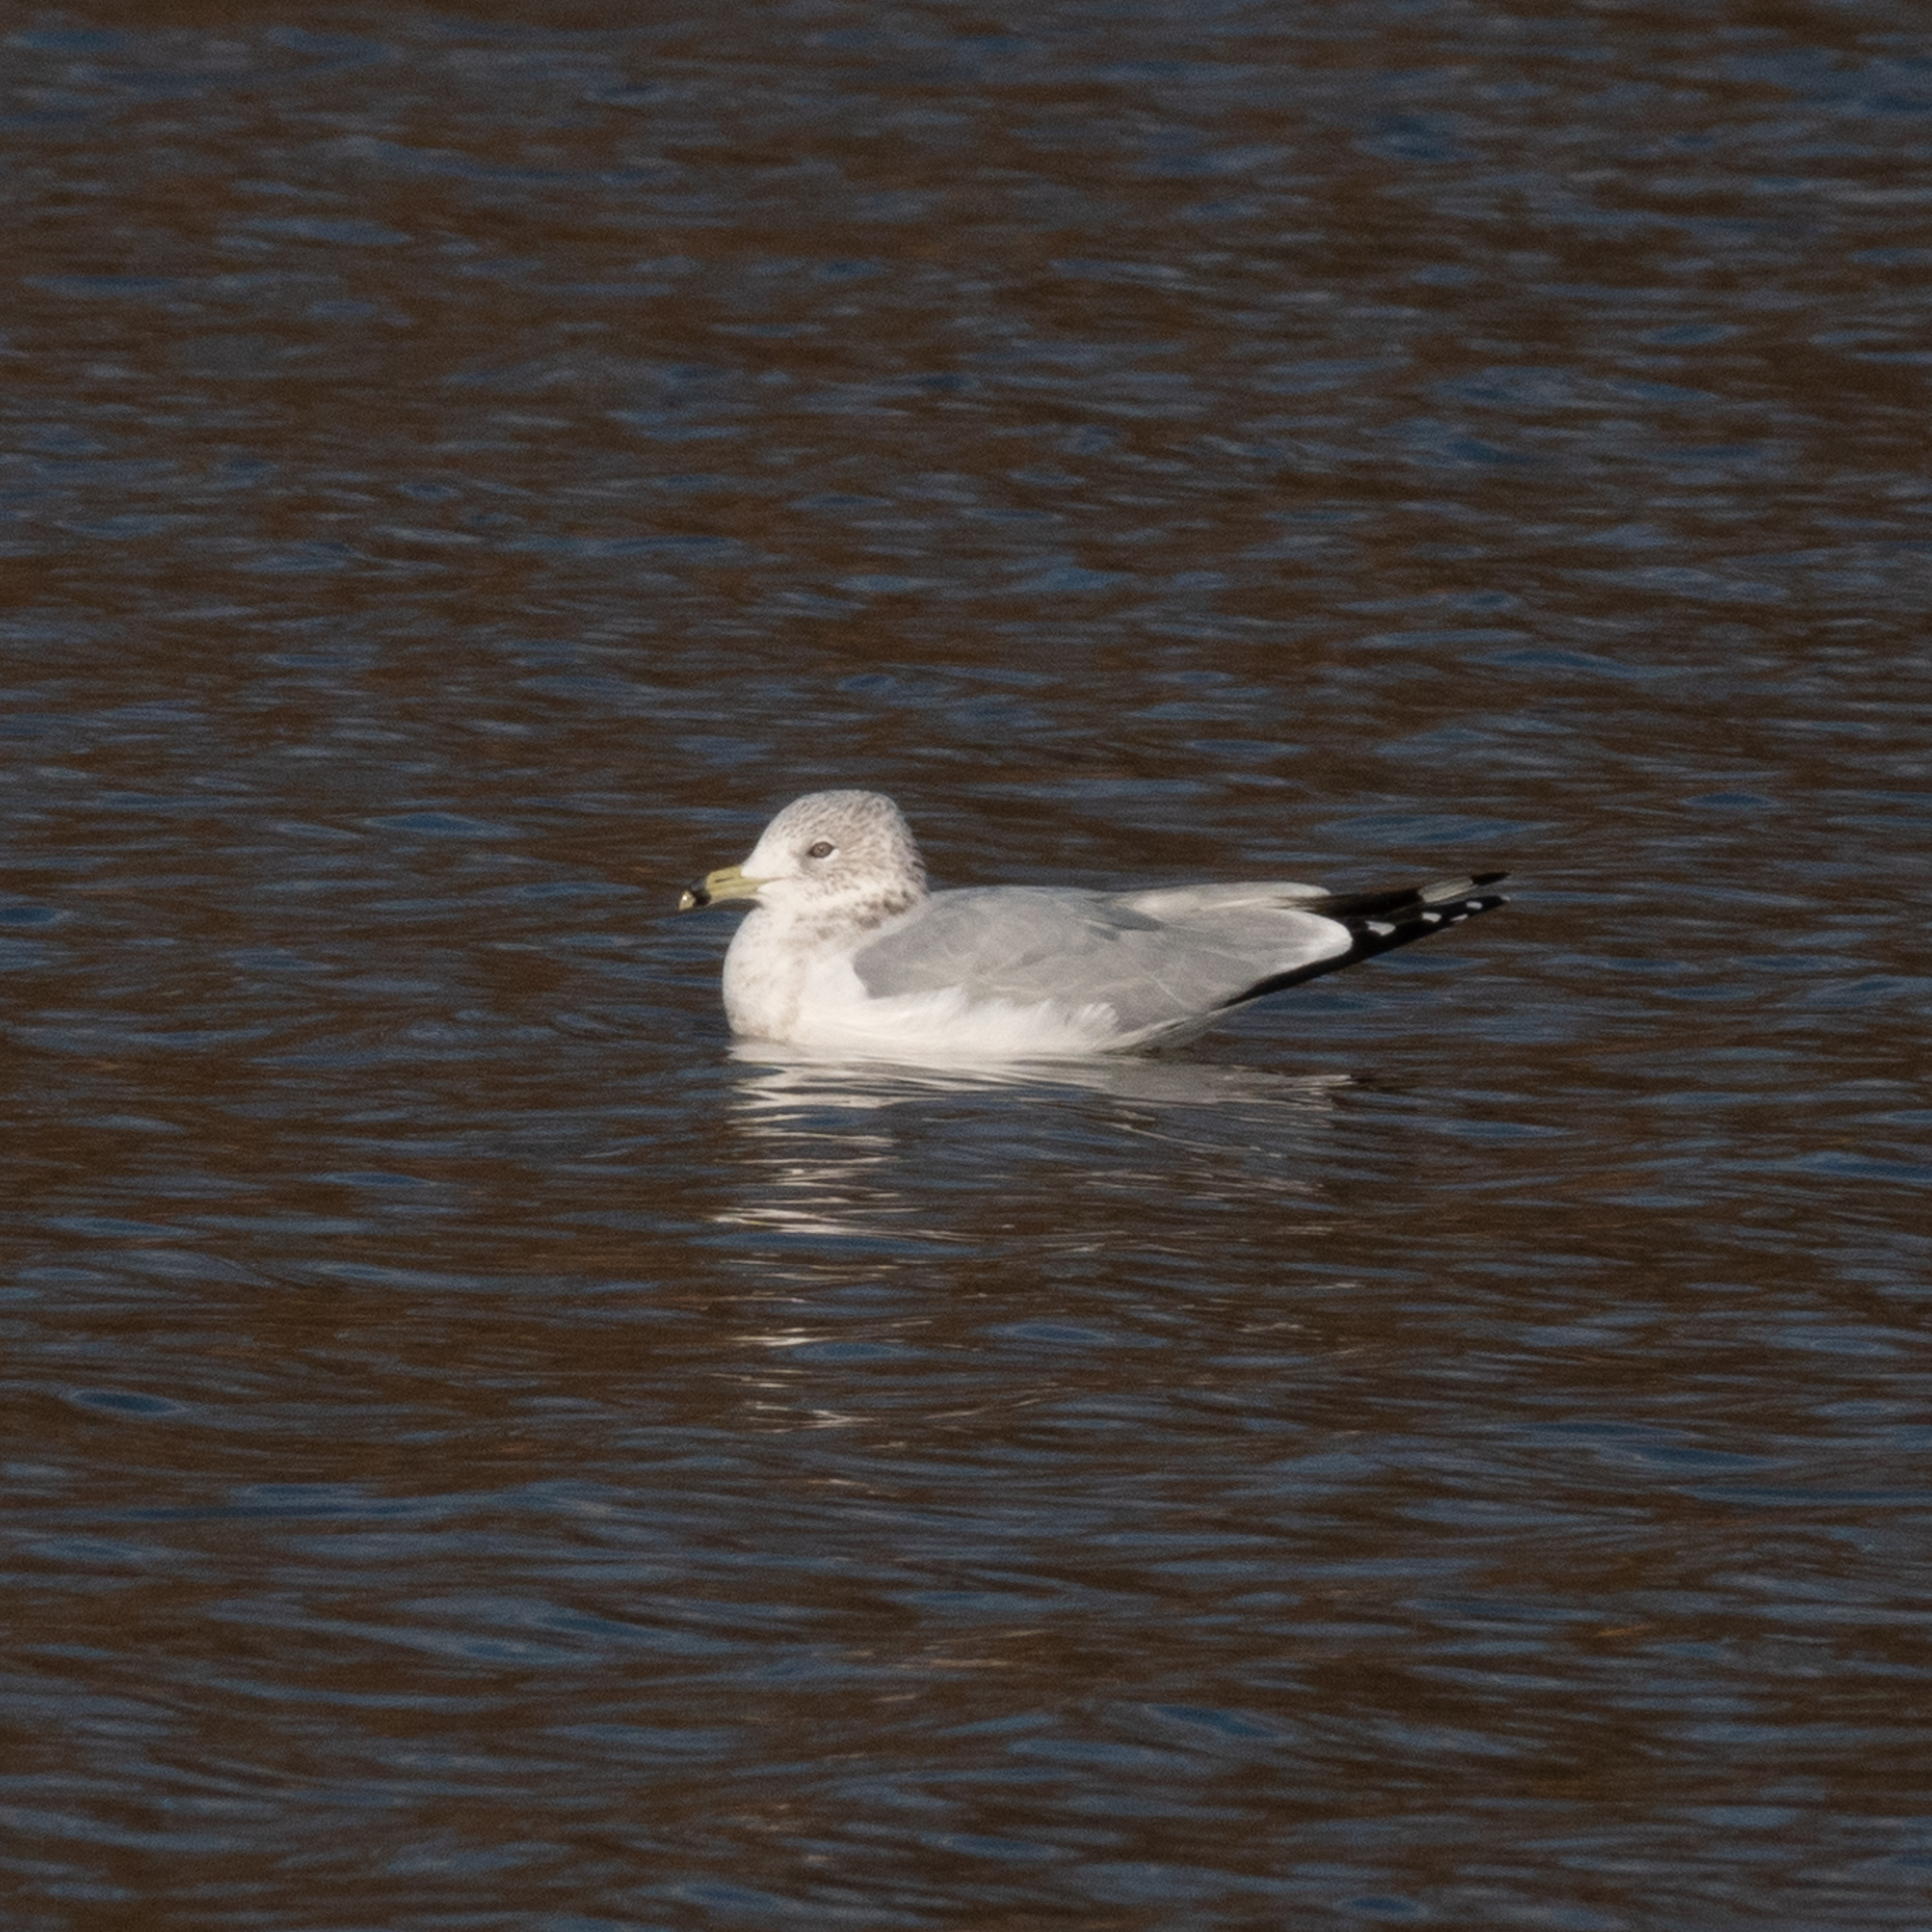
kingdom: Animalia
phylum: Chordata
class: Aves
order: Charadriiformes
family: Laridae
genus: Larus
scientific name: Larus delawarensis
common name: Ring-billed gull
